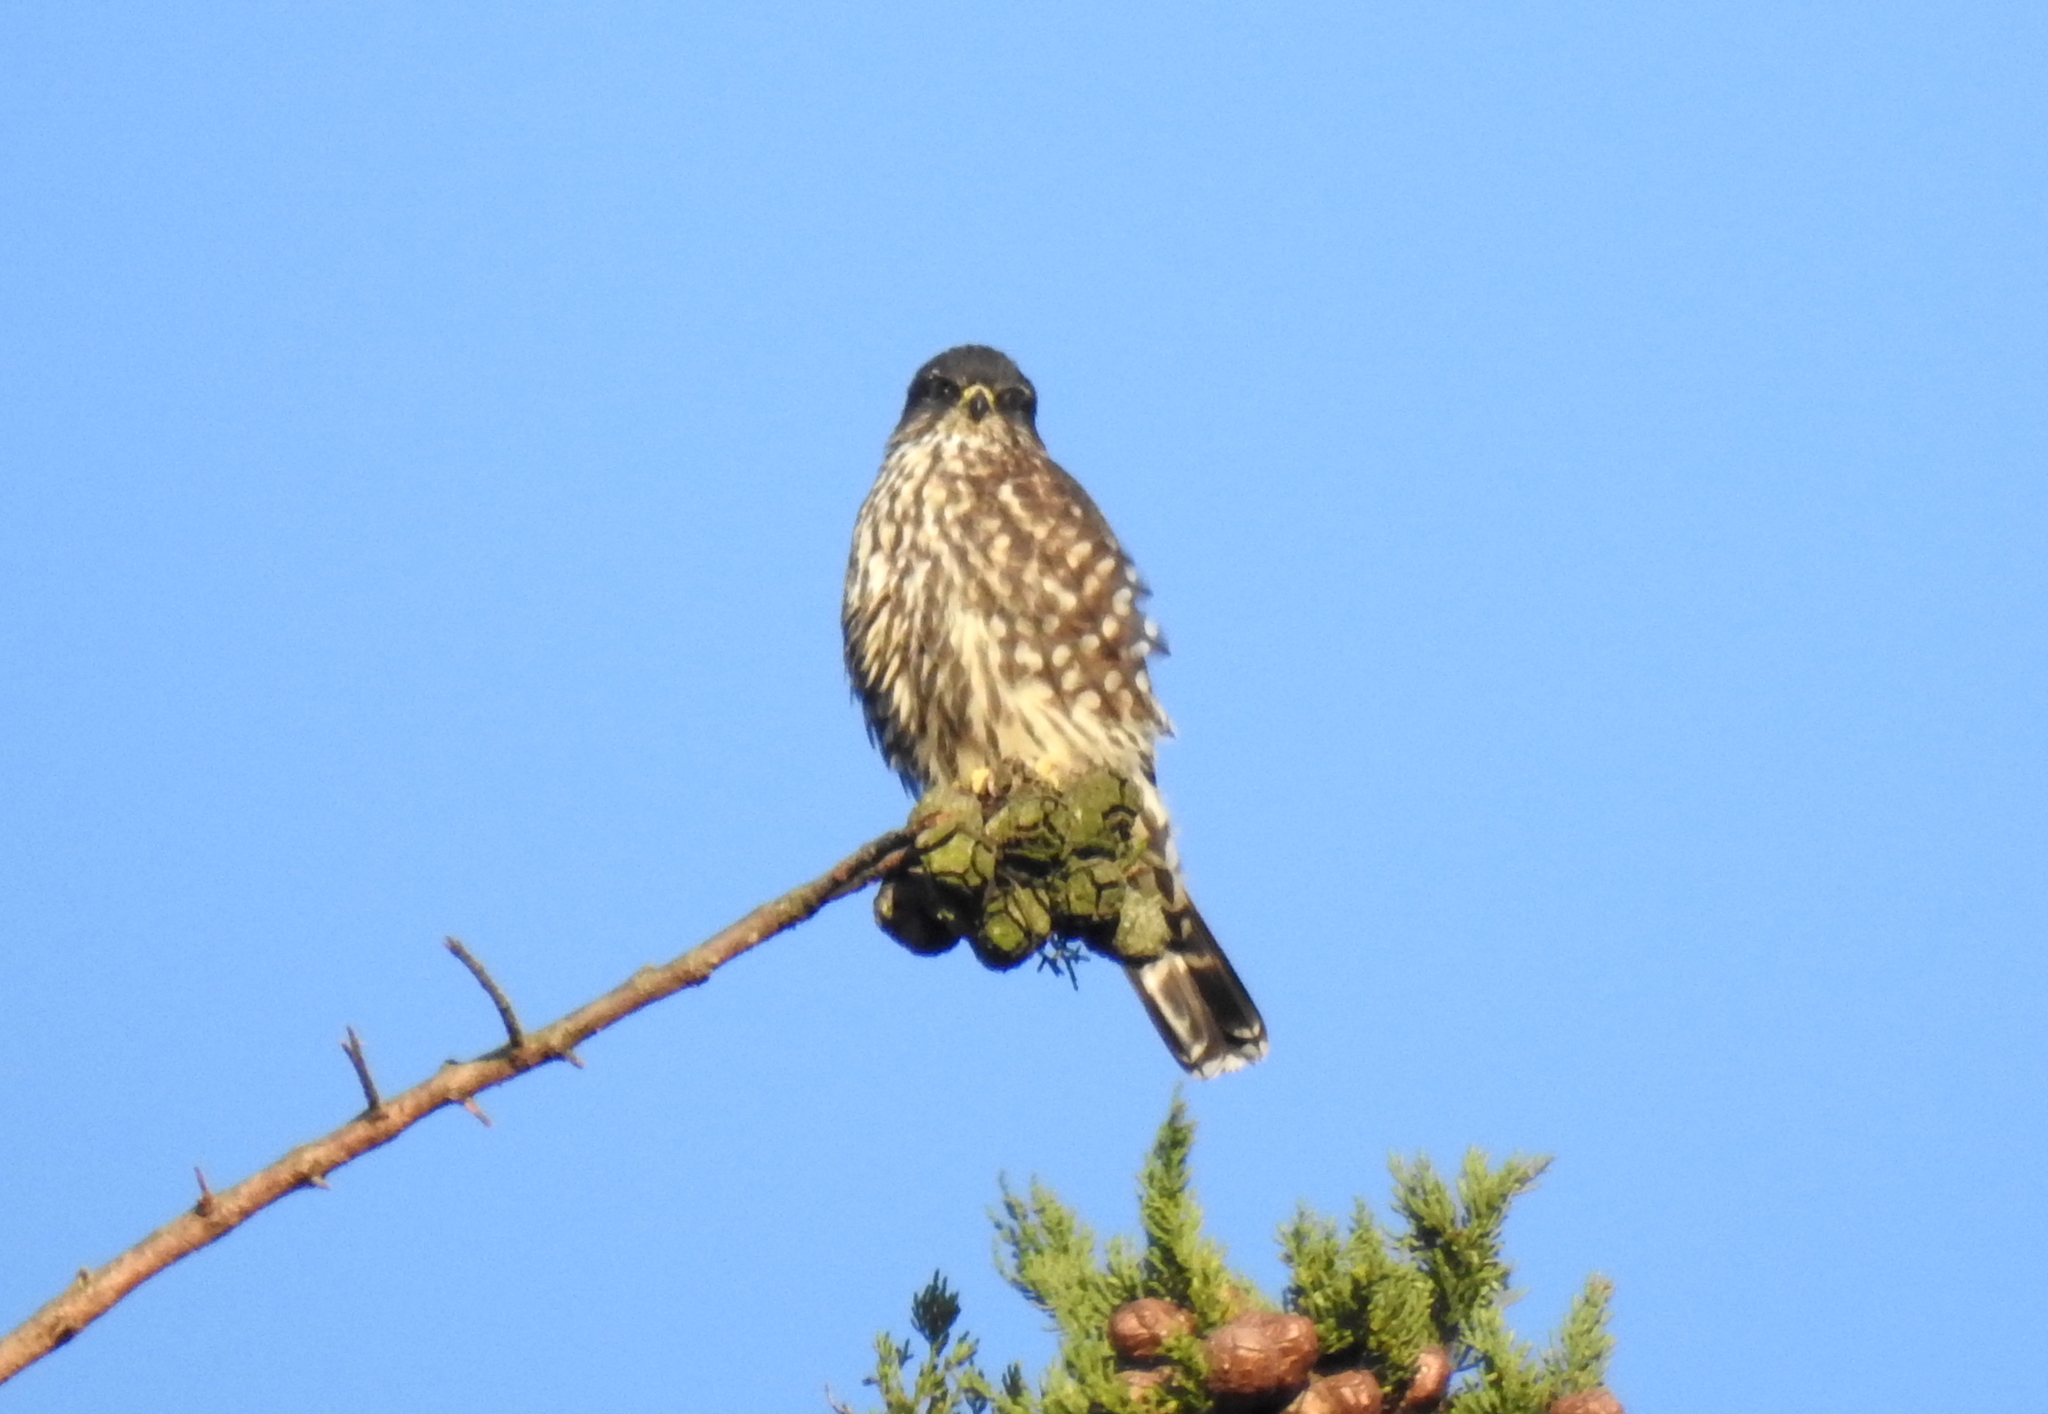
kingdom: Animalia
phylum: Chordata
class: Aves
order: Falconiformes
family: Falconidae
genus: Falco
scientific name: Falco columbarius
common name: Merlin
